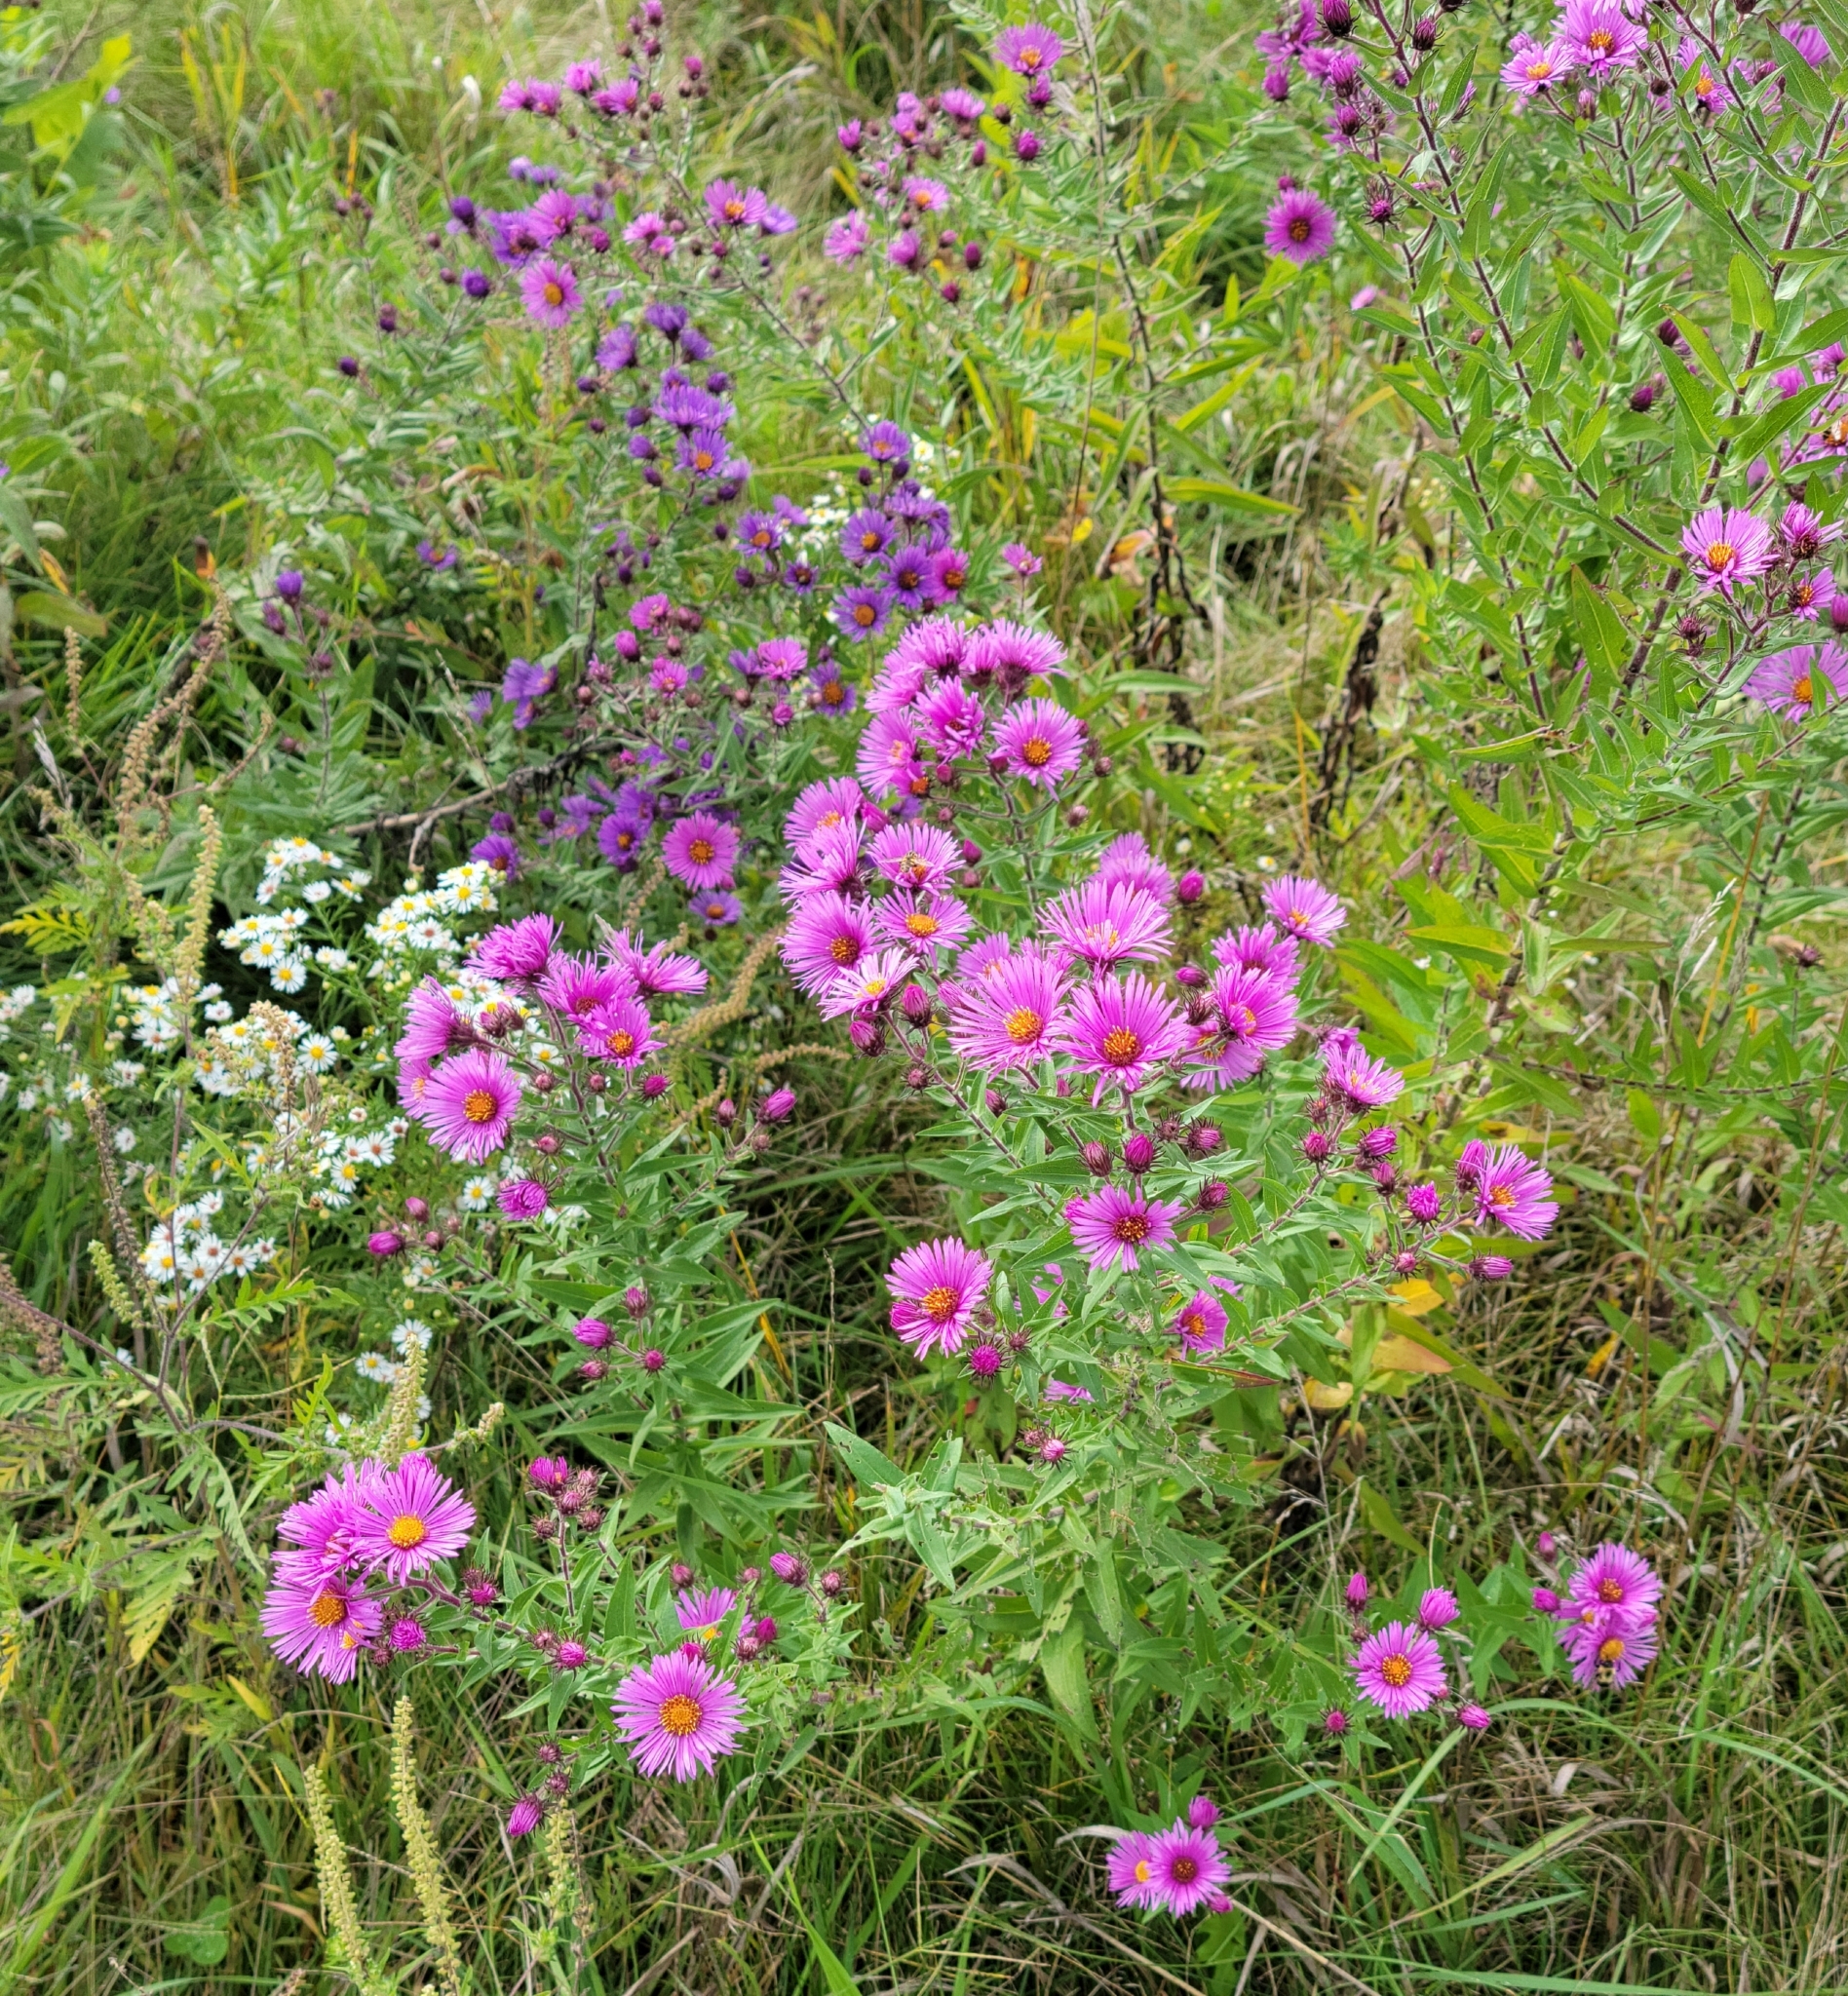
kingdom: Plantae
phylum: Tracheophyta
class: Magnoliopsida
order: Asterales
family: Asteraceae
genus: Symphyotrichum
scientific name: Symphyotrichum novae-angliae
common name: Michaelmas daisy
